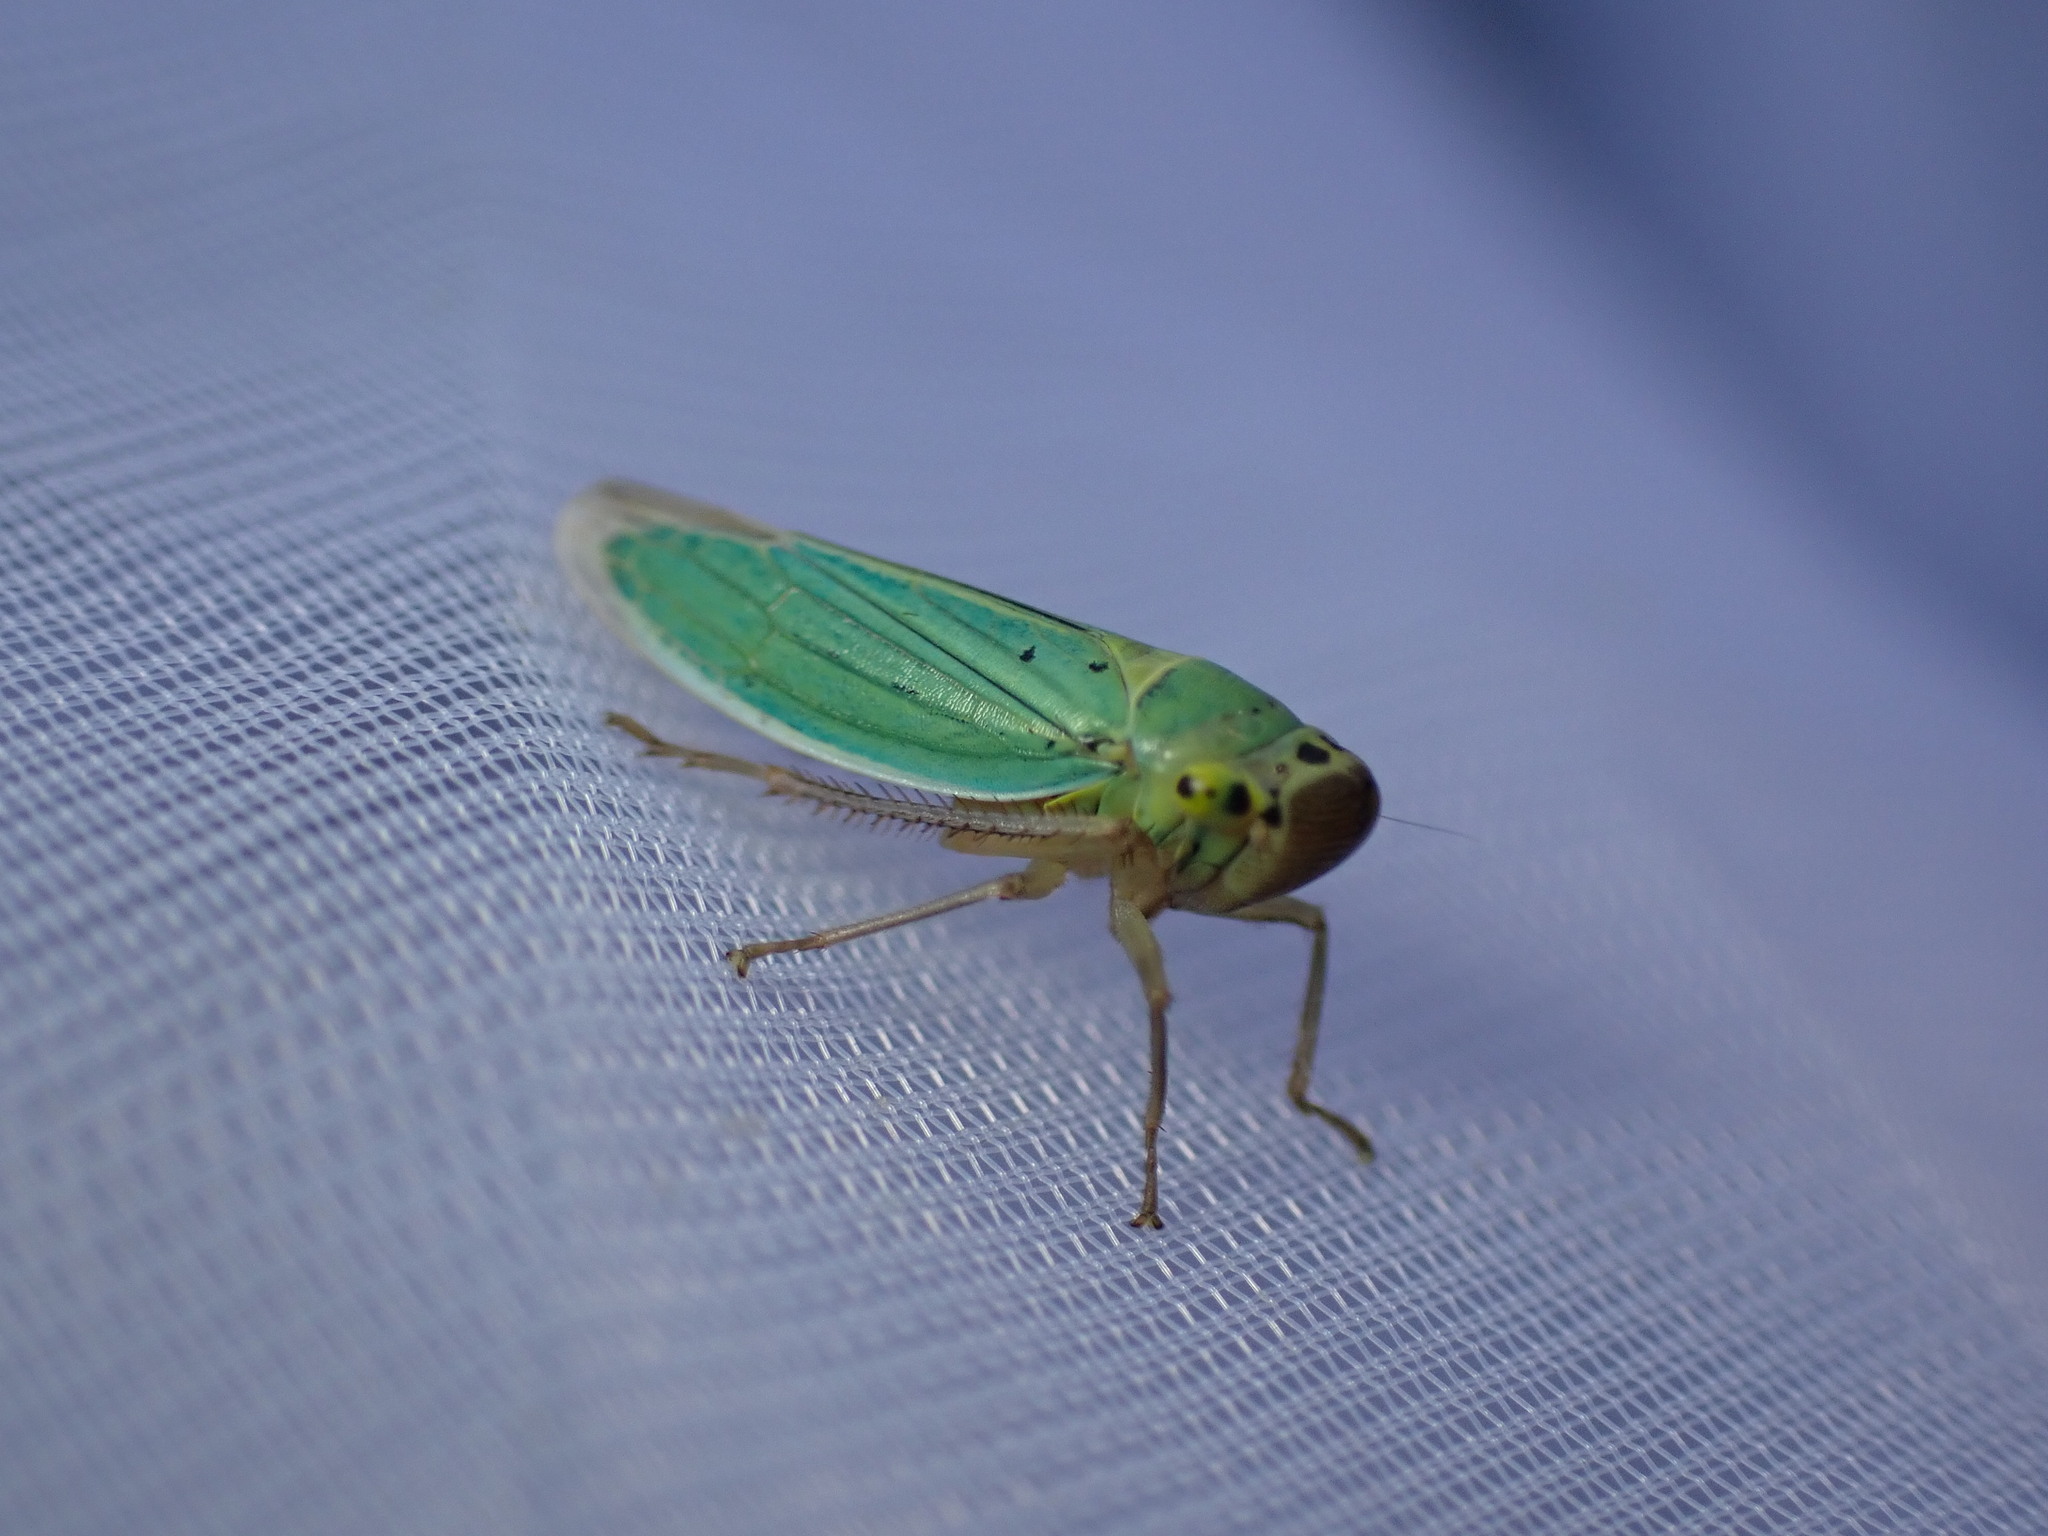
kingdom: Animalia
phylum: Arthropoda
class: Insecta
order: Hemiptera
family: Cicadellidae
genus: Cicadella
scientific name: Cicadella viridis
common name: Leafhopper
